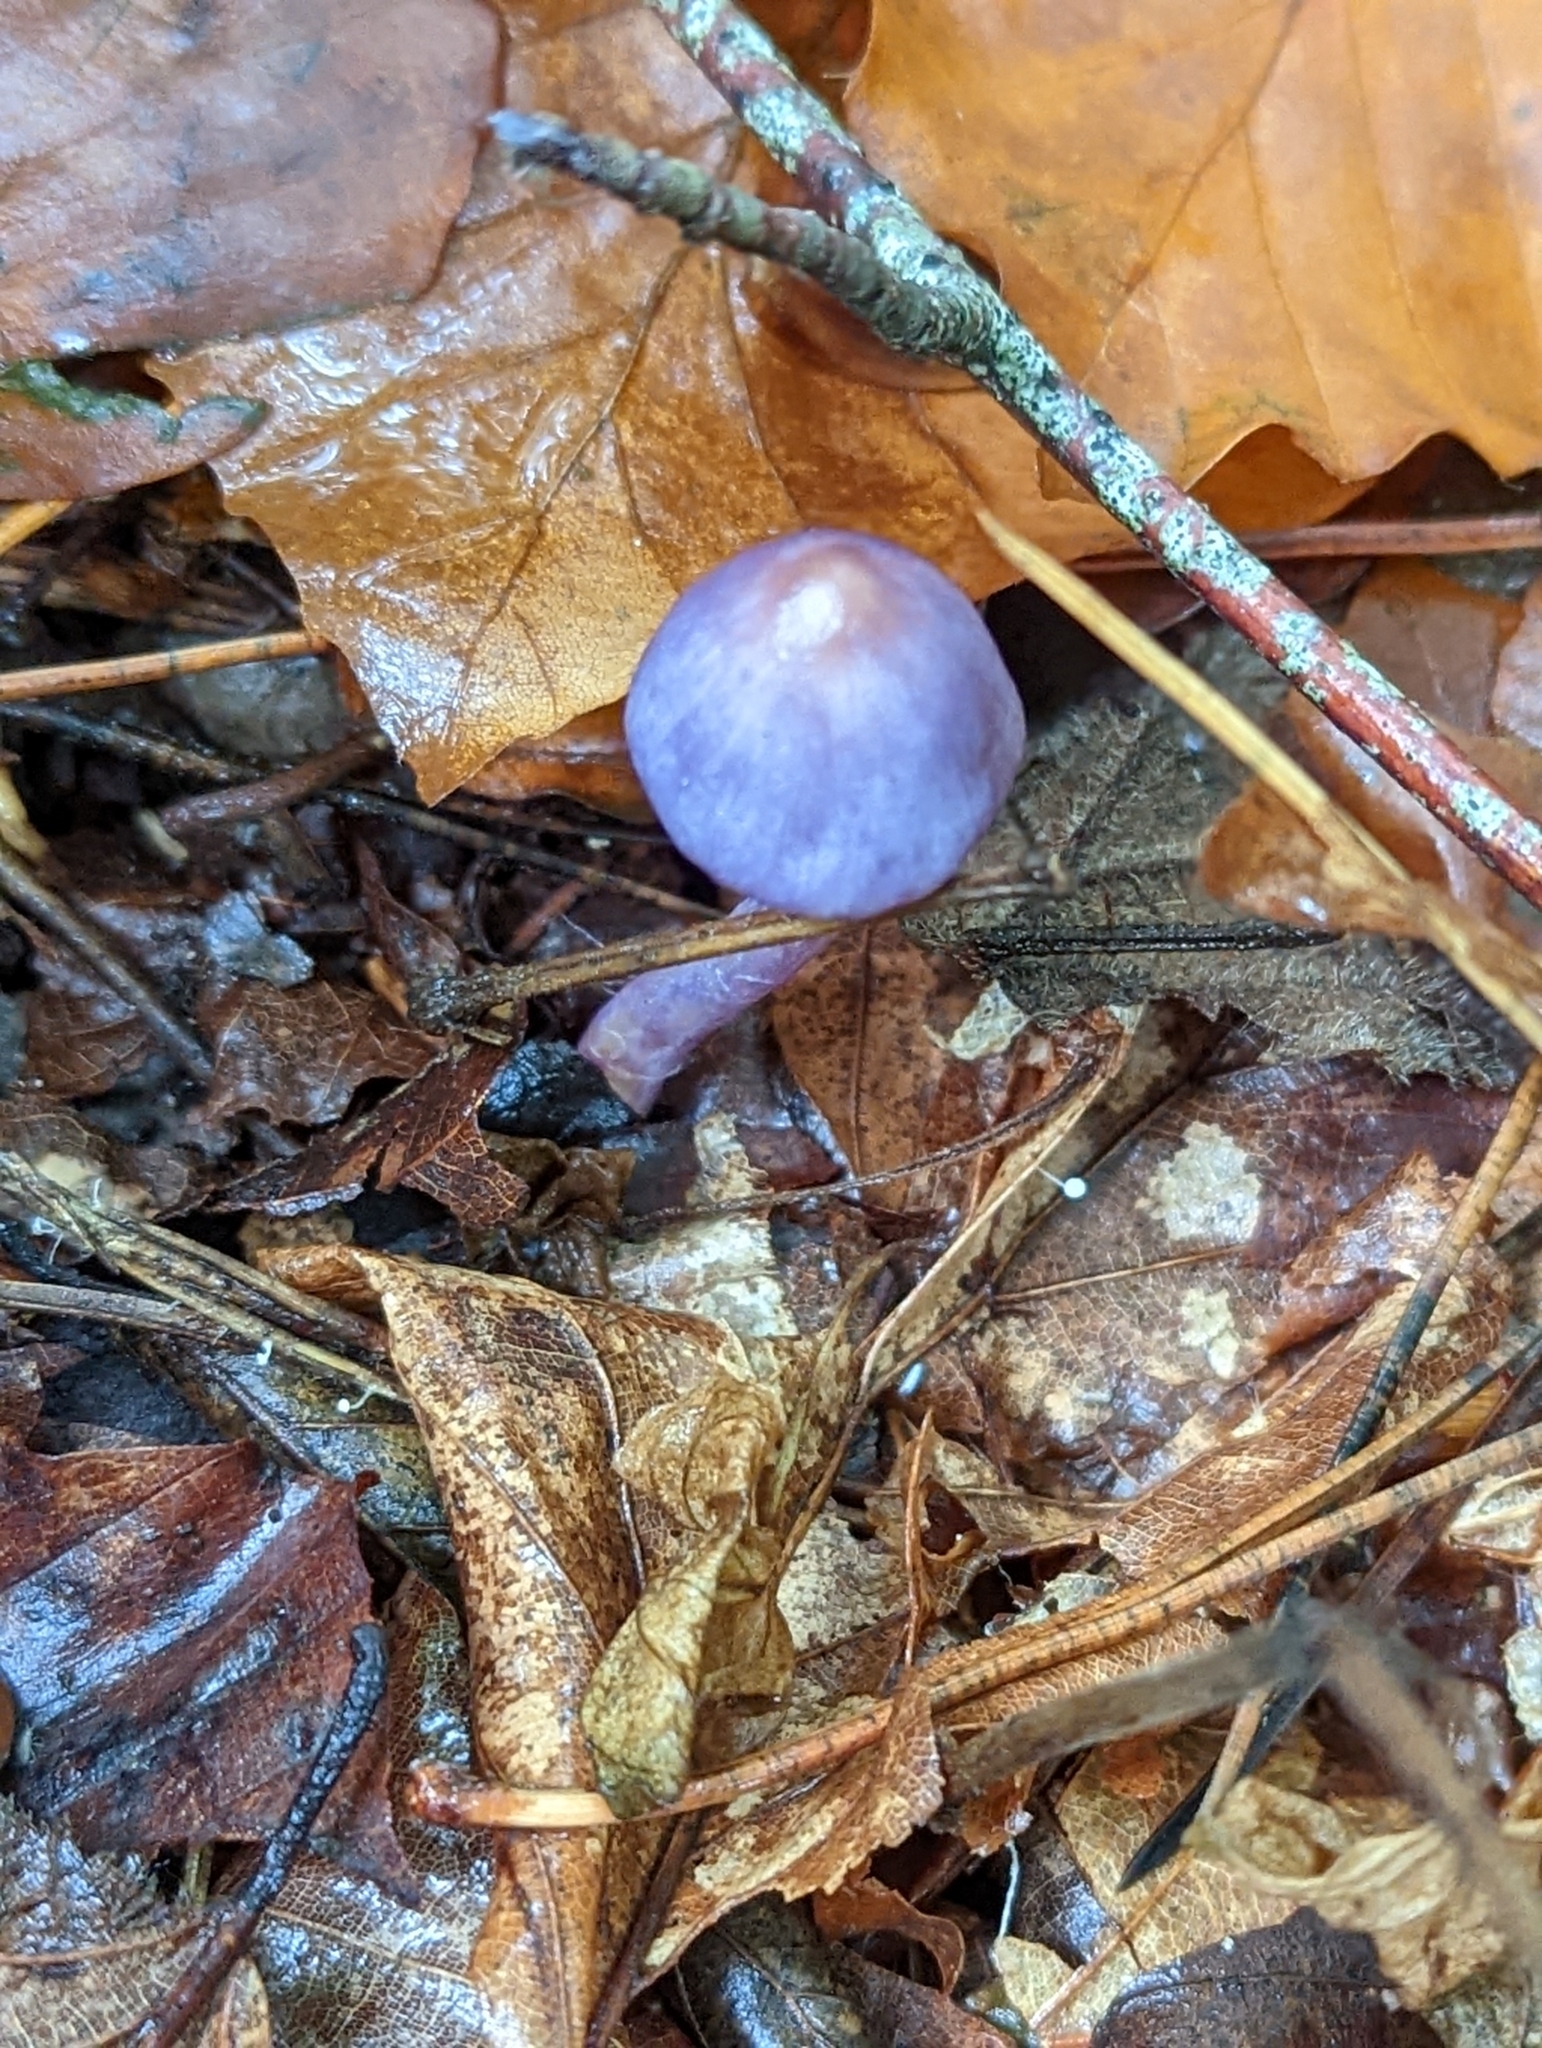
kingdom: Fungi
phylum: Basidiomycota
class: Agaricomycetes
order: Agaricales
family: Inocybaceae
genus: Inocybe
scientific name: Inocybe geophylla
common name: White fibrecap
